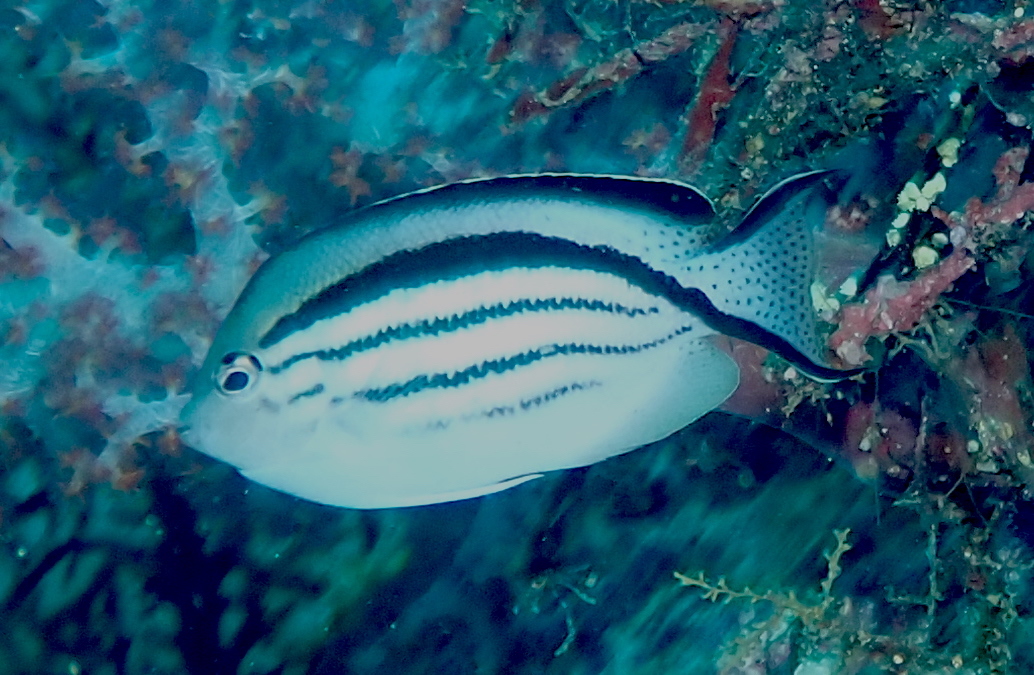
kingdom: Animalia
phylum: Chordata
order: Perciformes
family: Pomacanthidae
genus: Genicanthus
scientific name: Genicanthus lamarck
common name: Lamarck's angelfish
